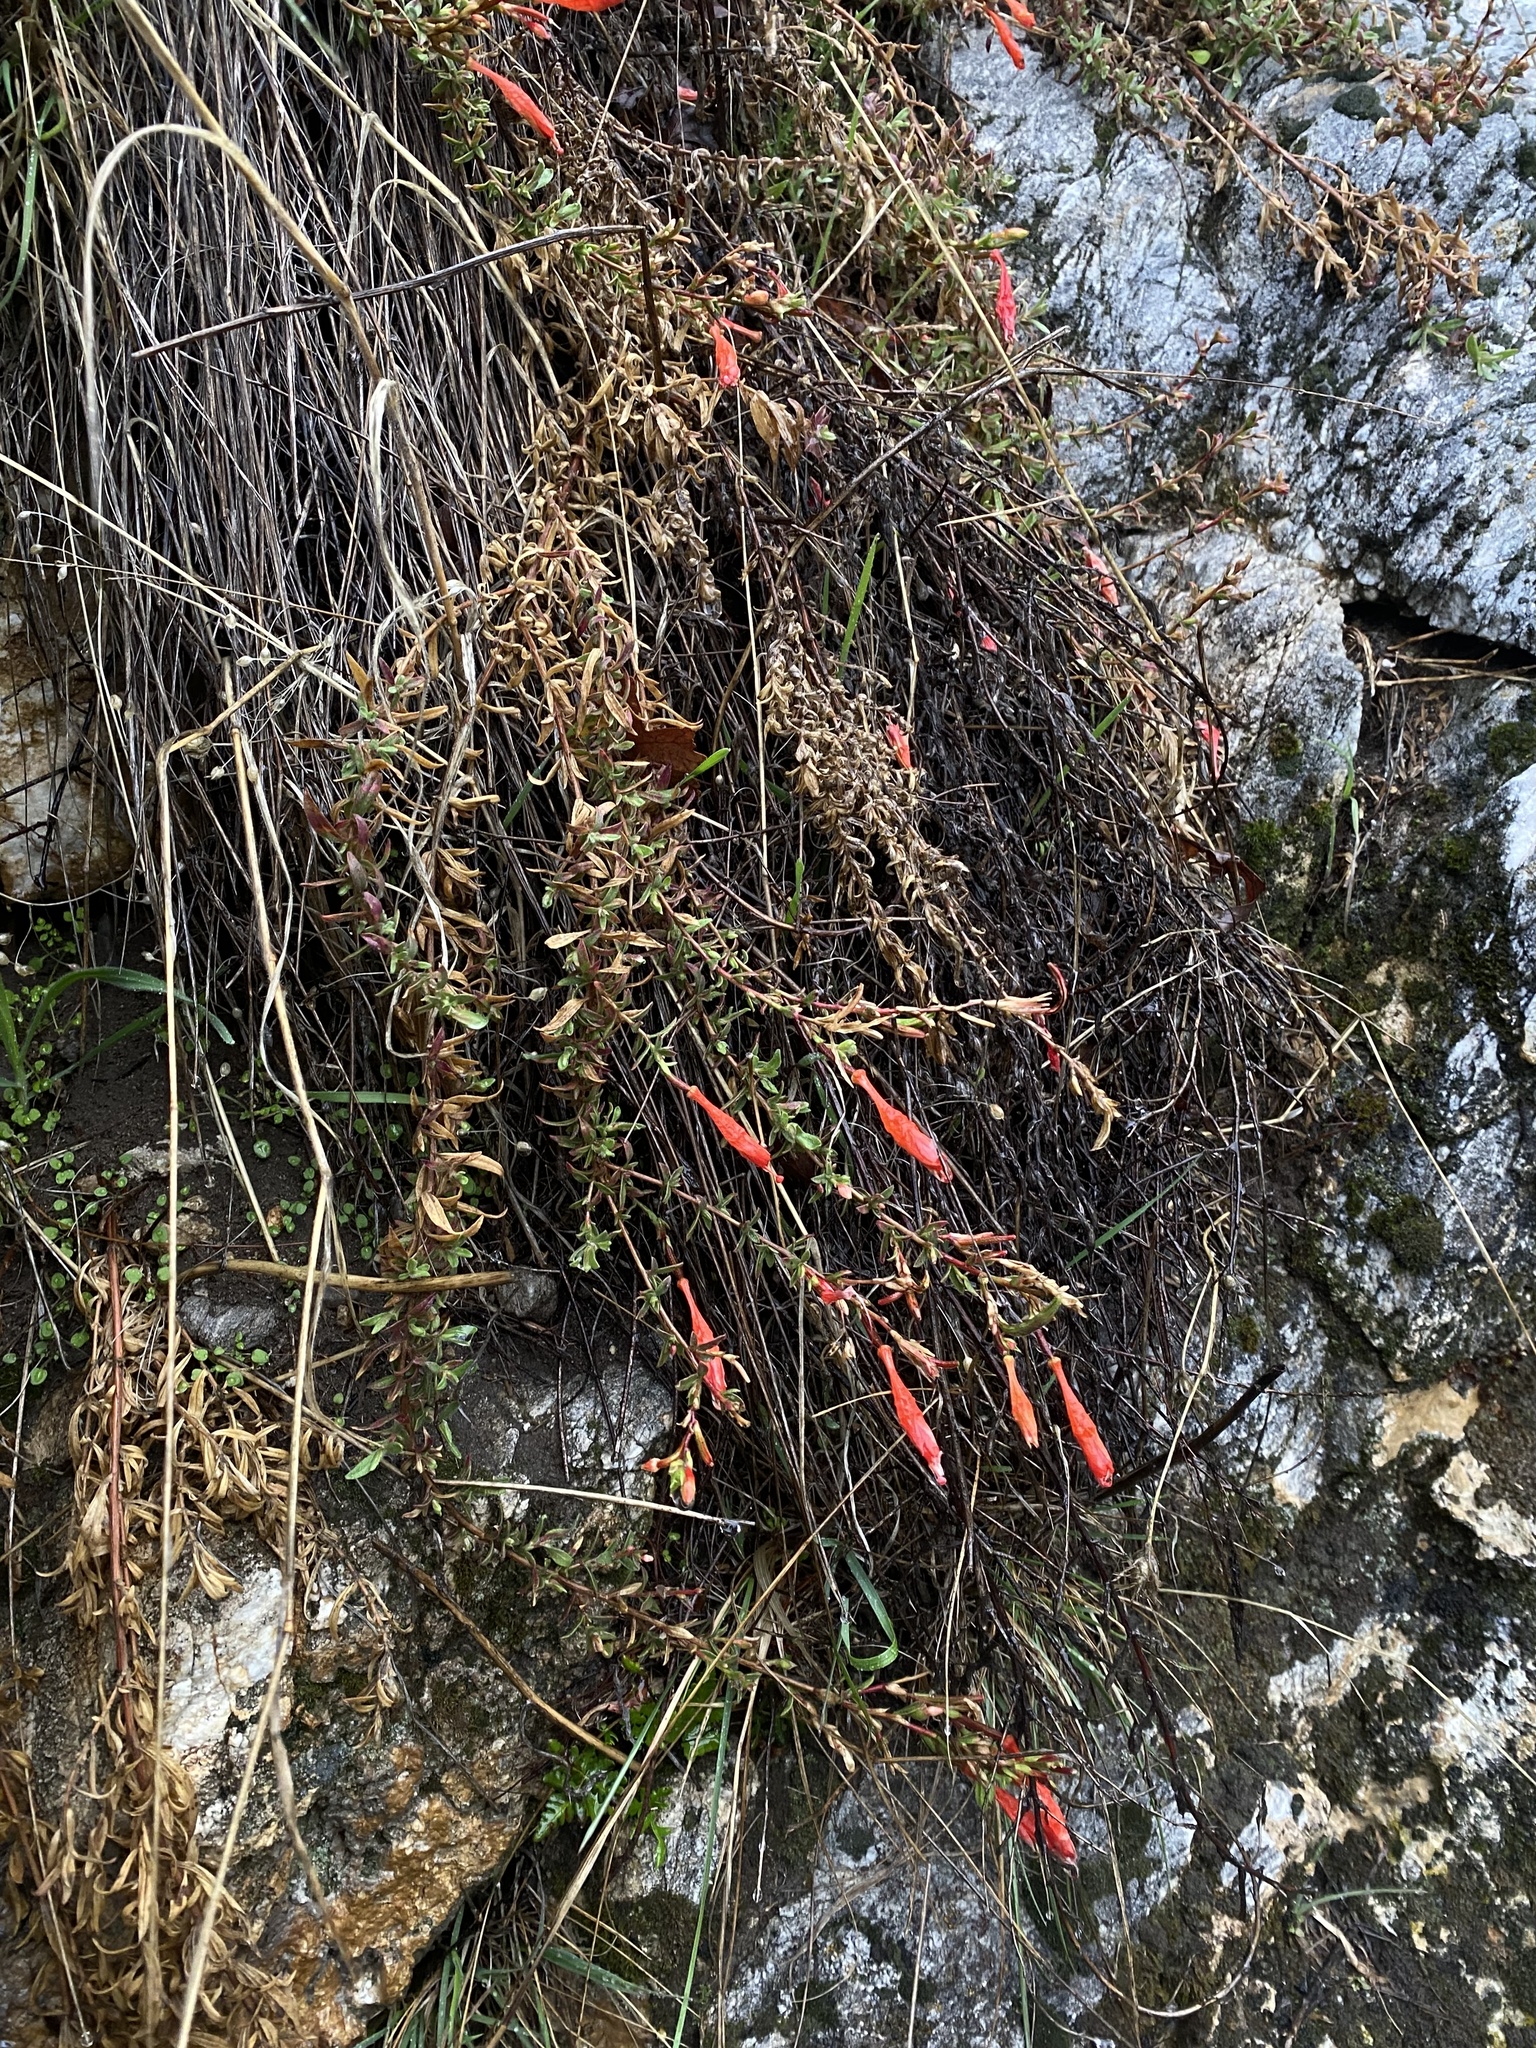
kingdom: Plantae
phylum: Tracheophyta
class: Magnoliopsida
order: Myrtales
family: Onagraceae
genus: Epilobium
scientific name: Epilobium canum
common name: California-fuchsia
